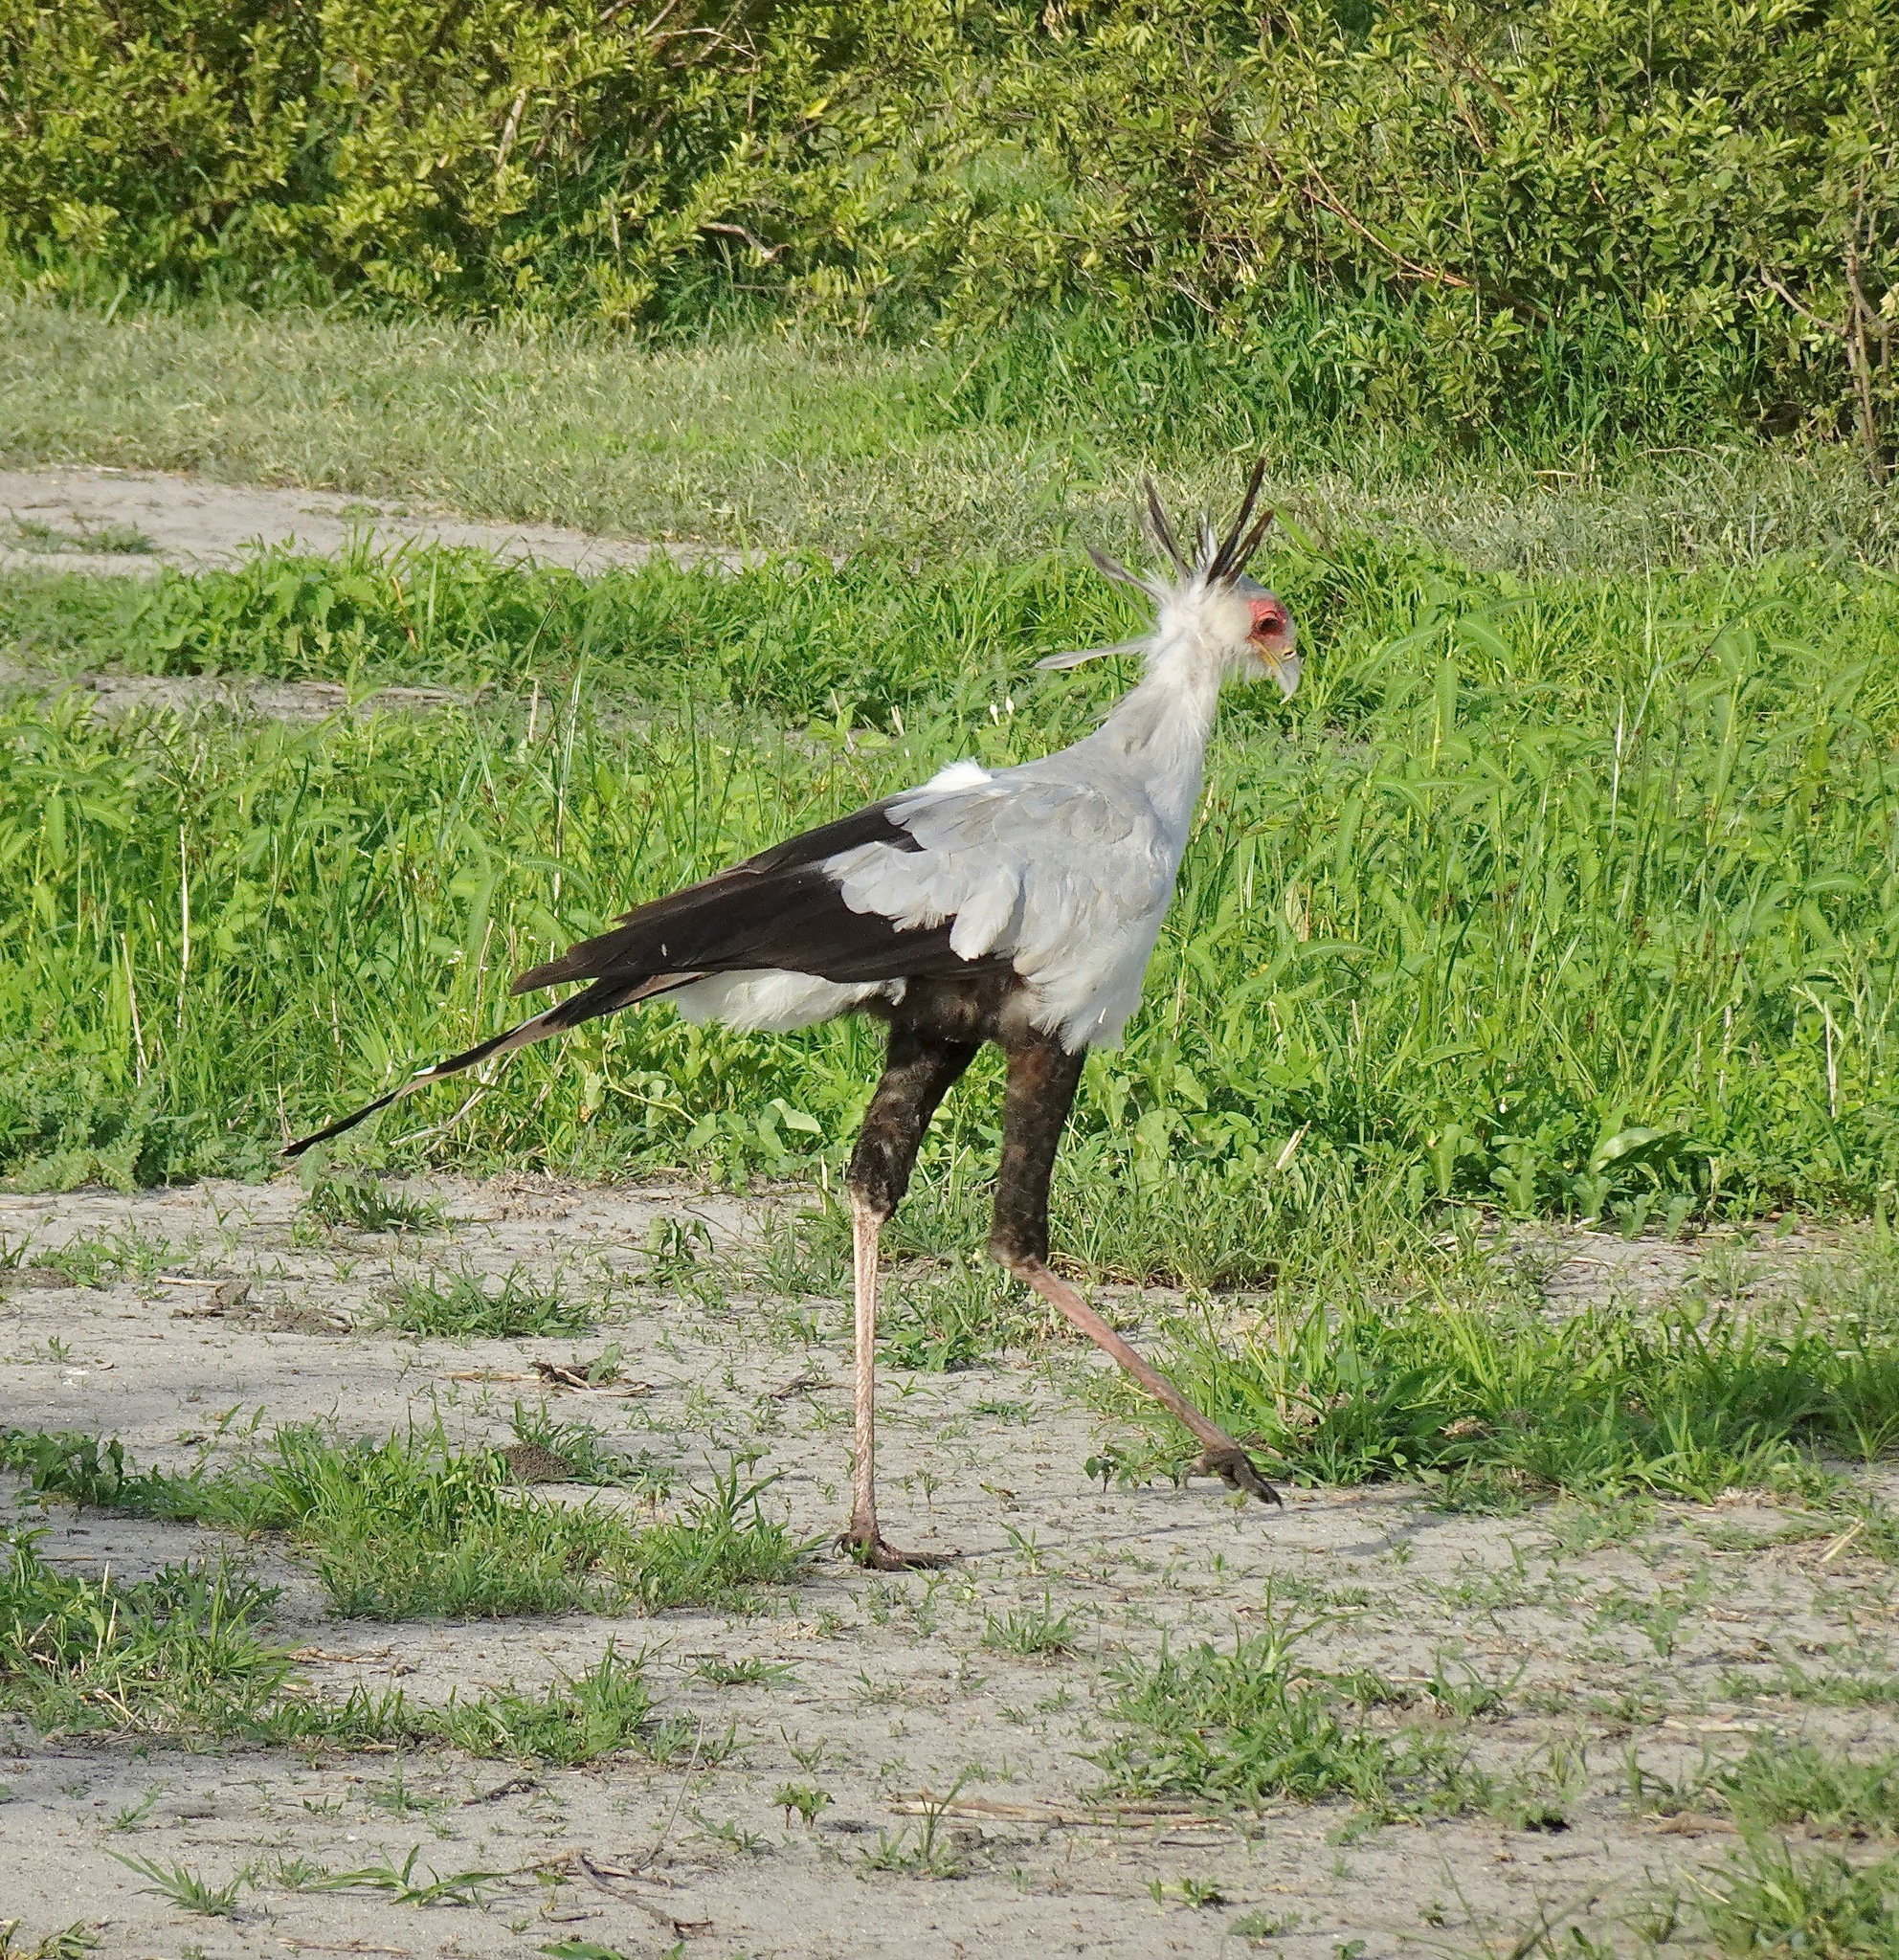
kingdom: Animalia
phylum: Chordata
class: Aves
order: Accipitriformes
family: Sagittariidae
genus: Sagittarius
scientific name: Sagittarius serpentarius
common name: Secretarybird
